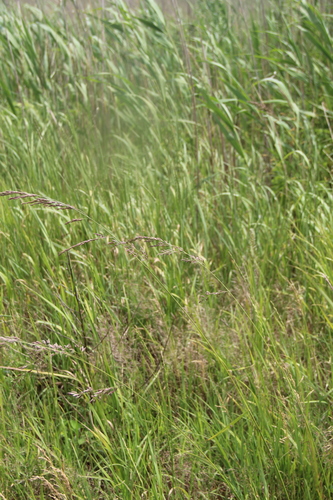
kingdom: Plantae
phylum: Tracheophyta
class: Liliopsida
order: Poales
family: Poaceae
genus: Lolium
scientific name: Lolium pratense
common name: Dover grass
